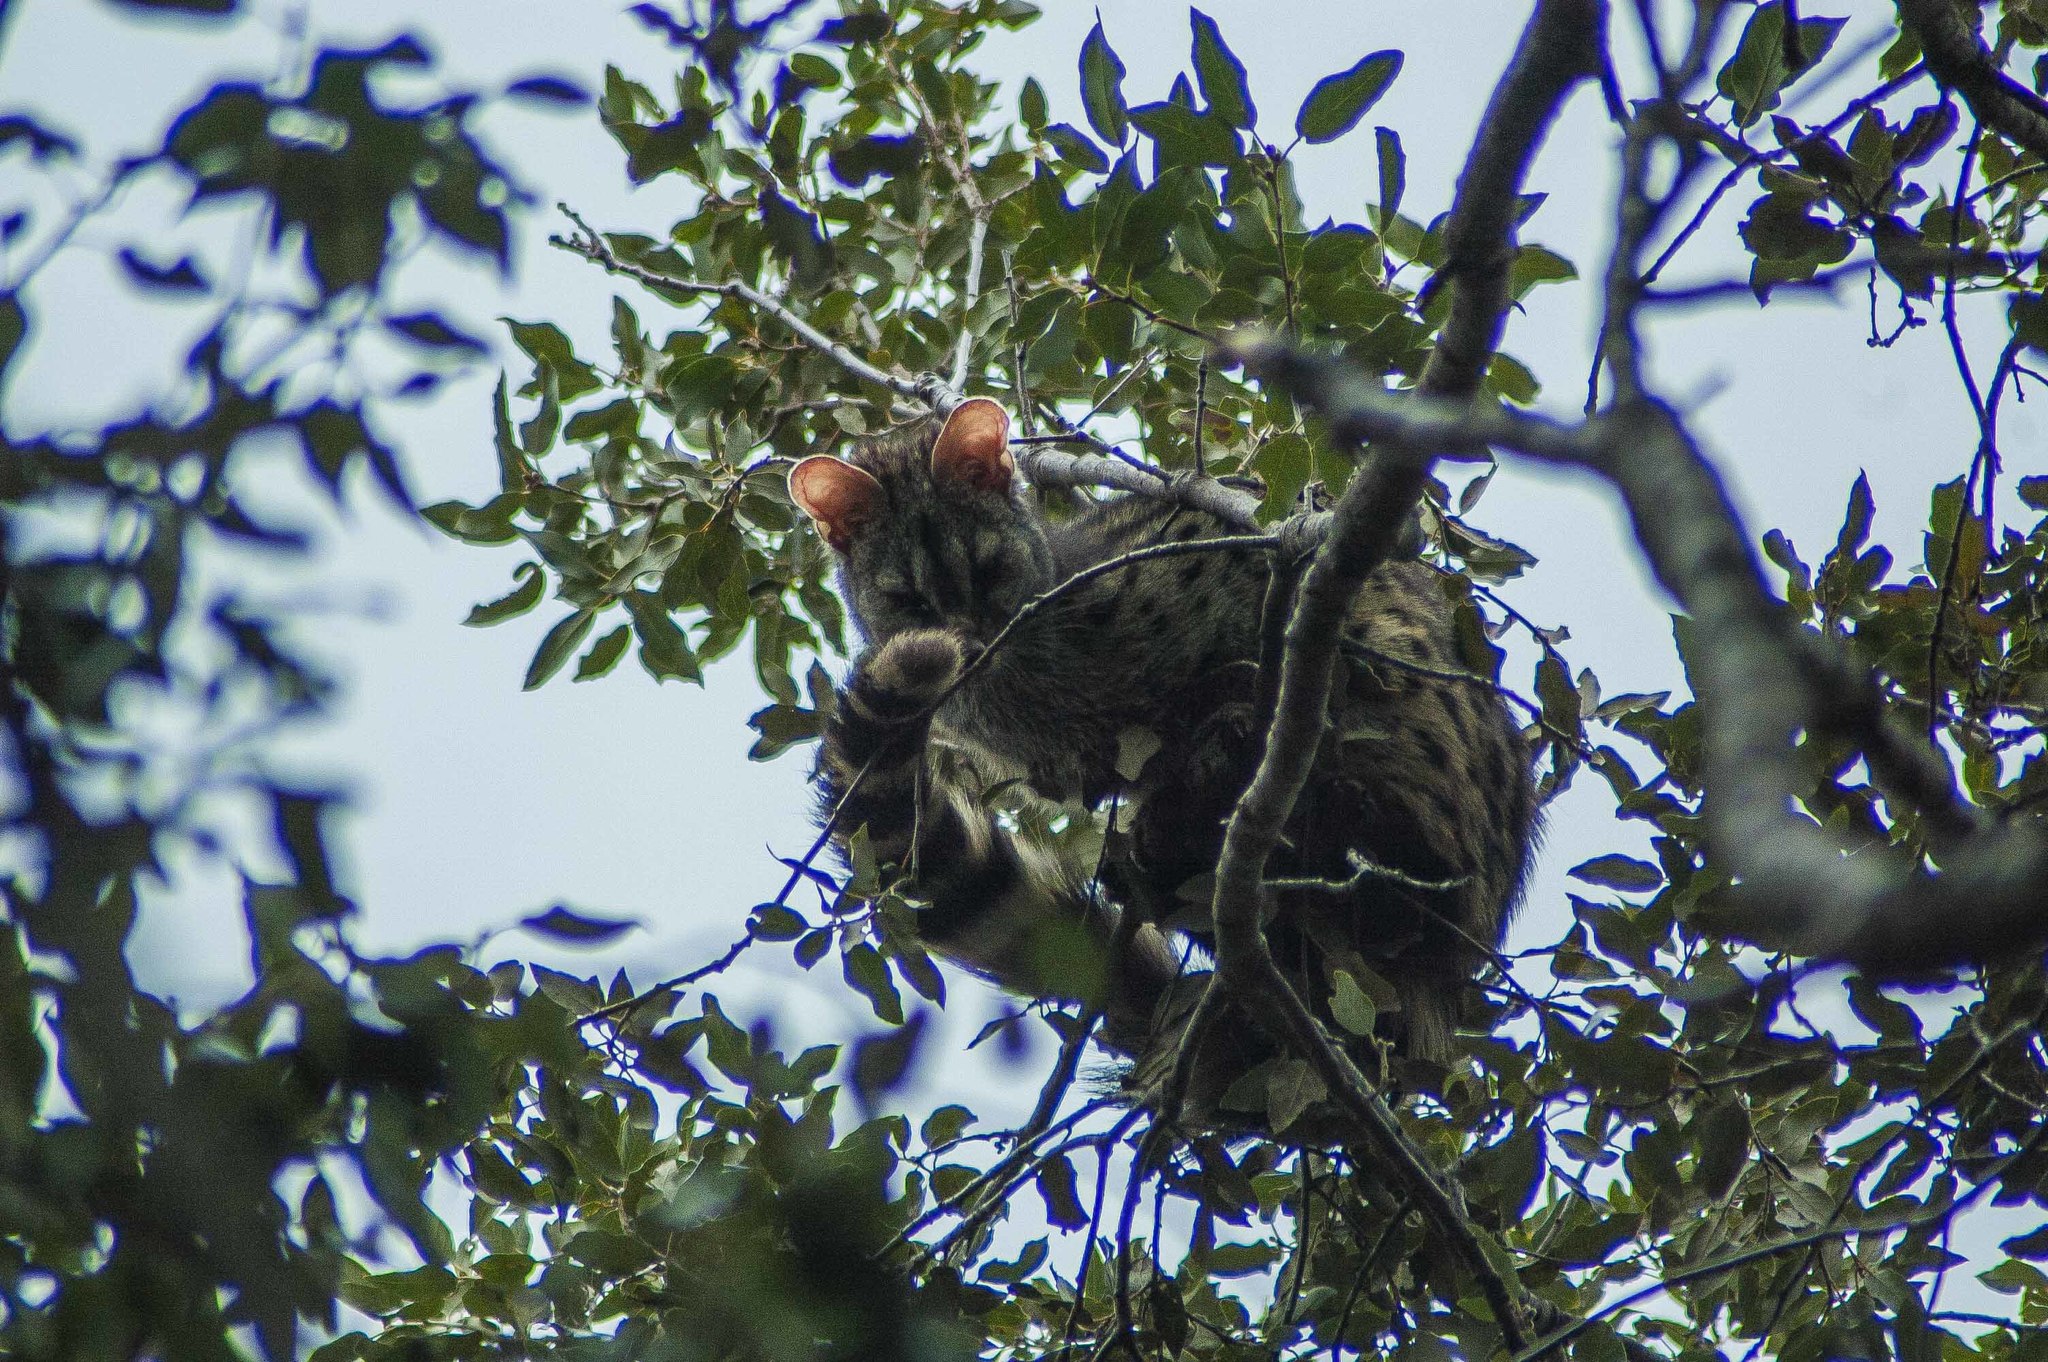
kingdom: Animalia
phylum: Chordata
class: Mammalia
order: Carnivora
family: Viverridae
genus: Genetta
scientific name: Genetta genetta
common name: Common genet
